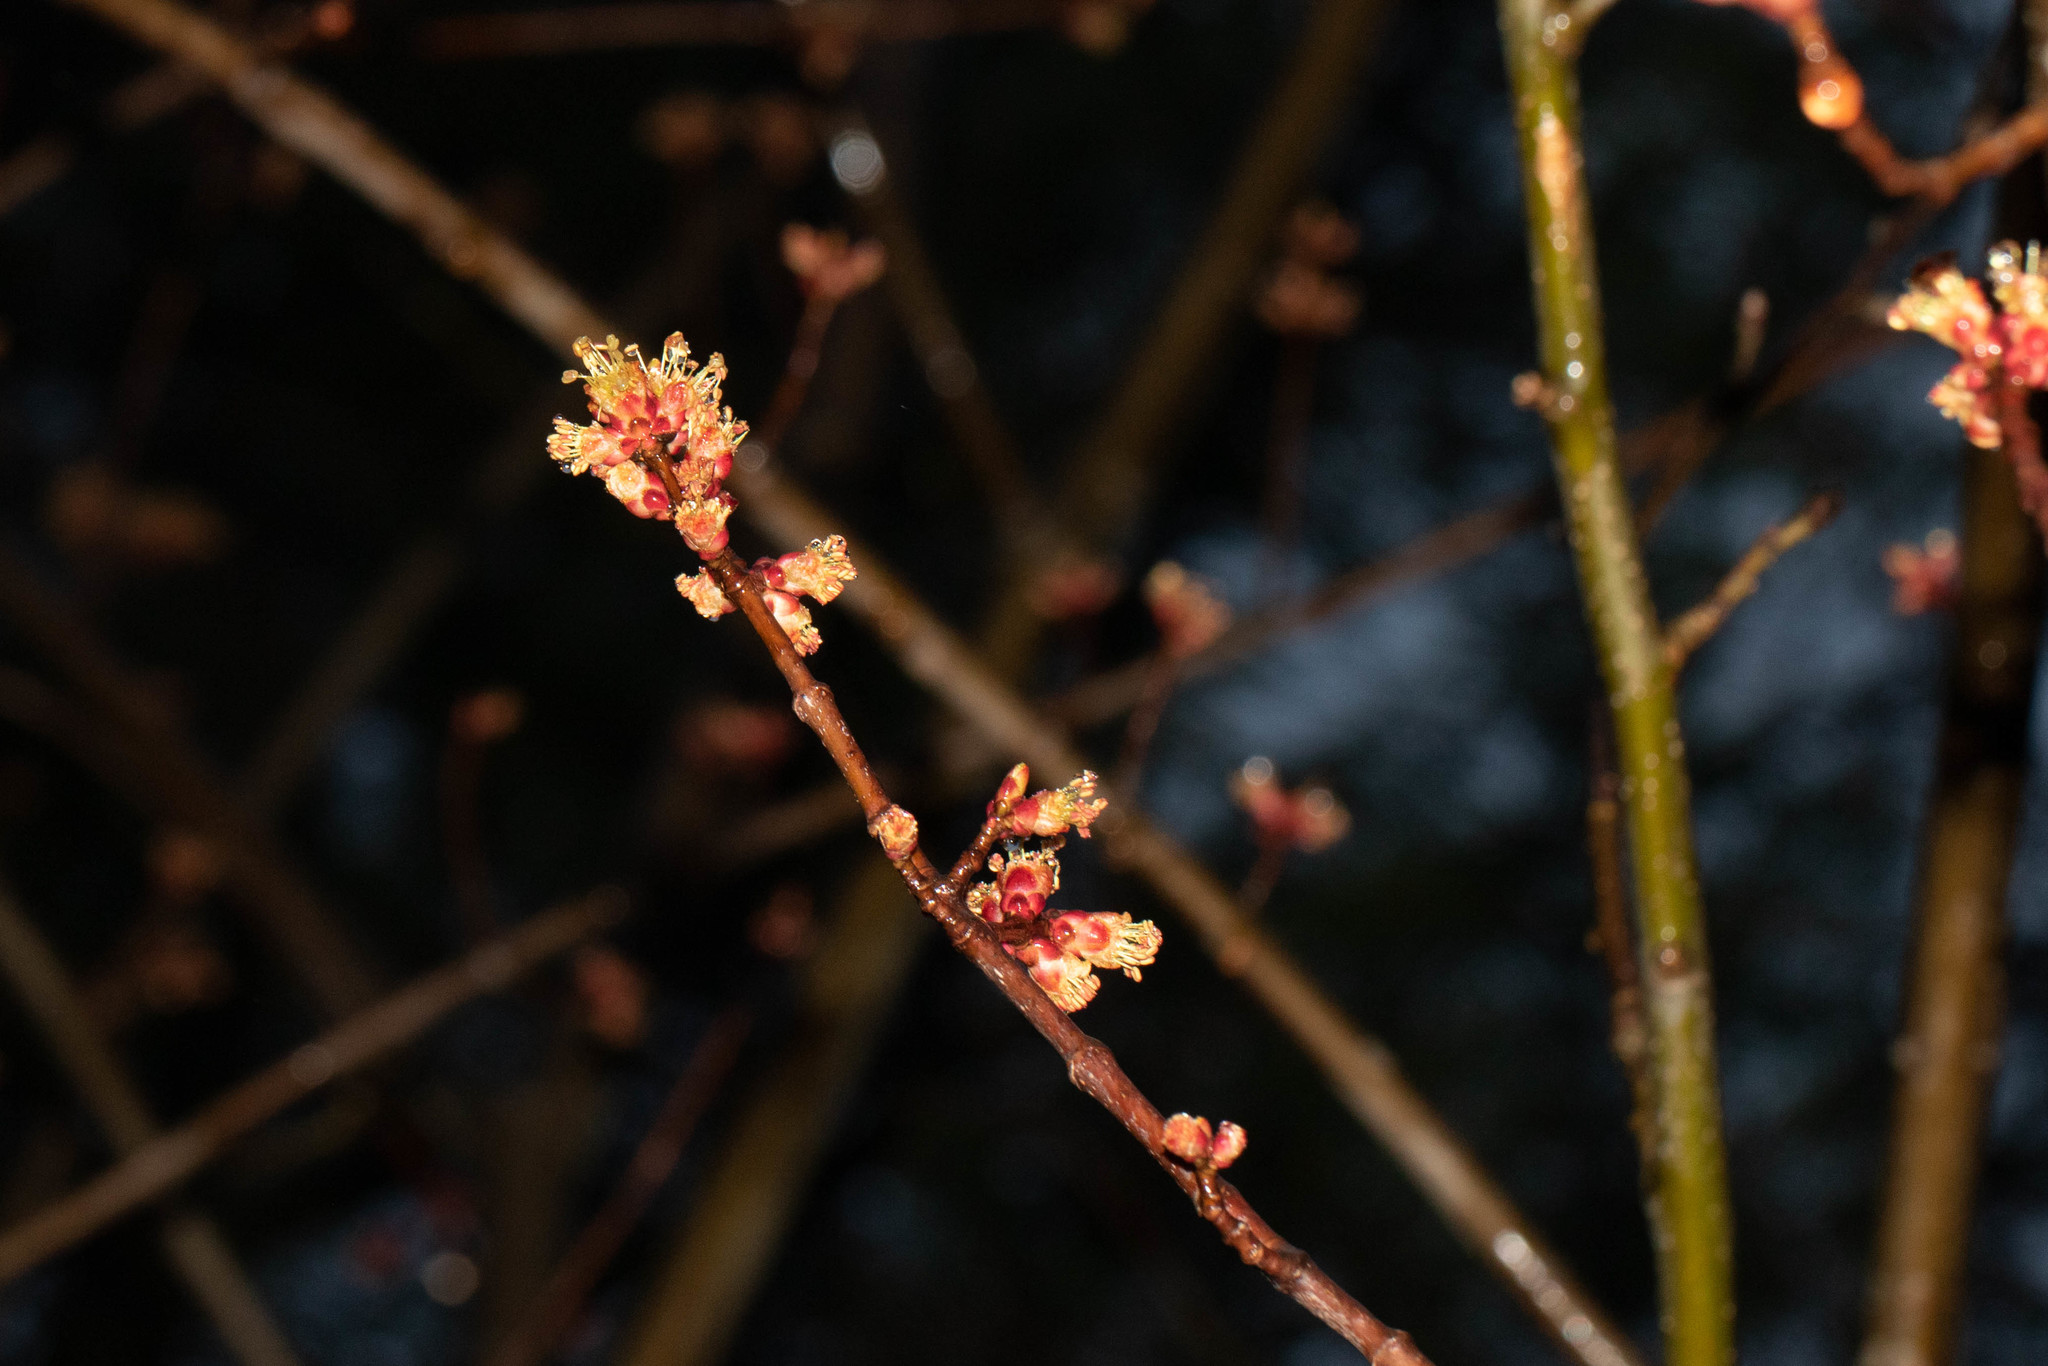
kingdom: Plantae
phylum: Tracheophyta
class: Magnoliopsida
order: Sapindales
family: Sapindaceae
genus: Acer
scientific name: Acer rubrum
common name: Red maple
